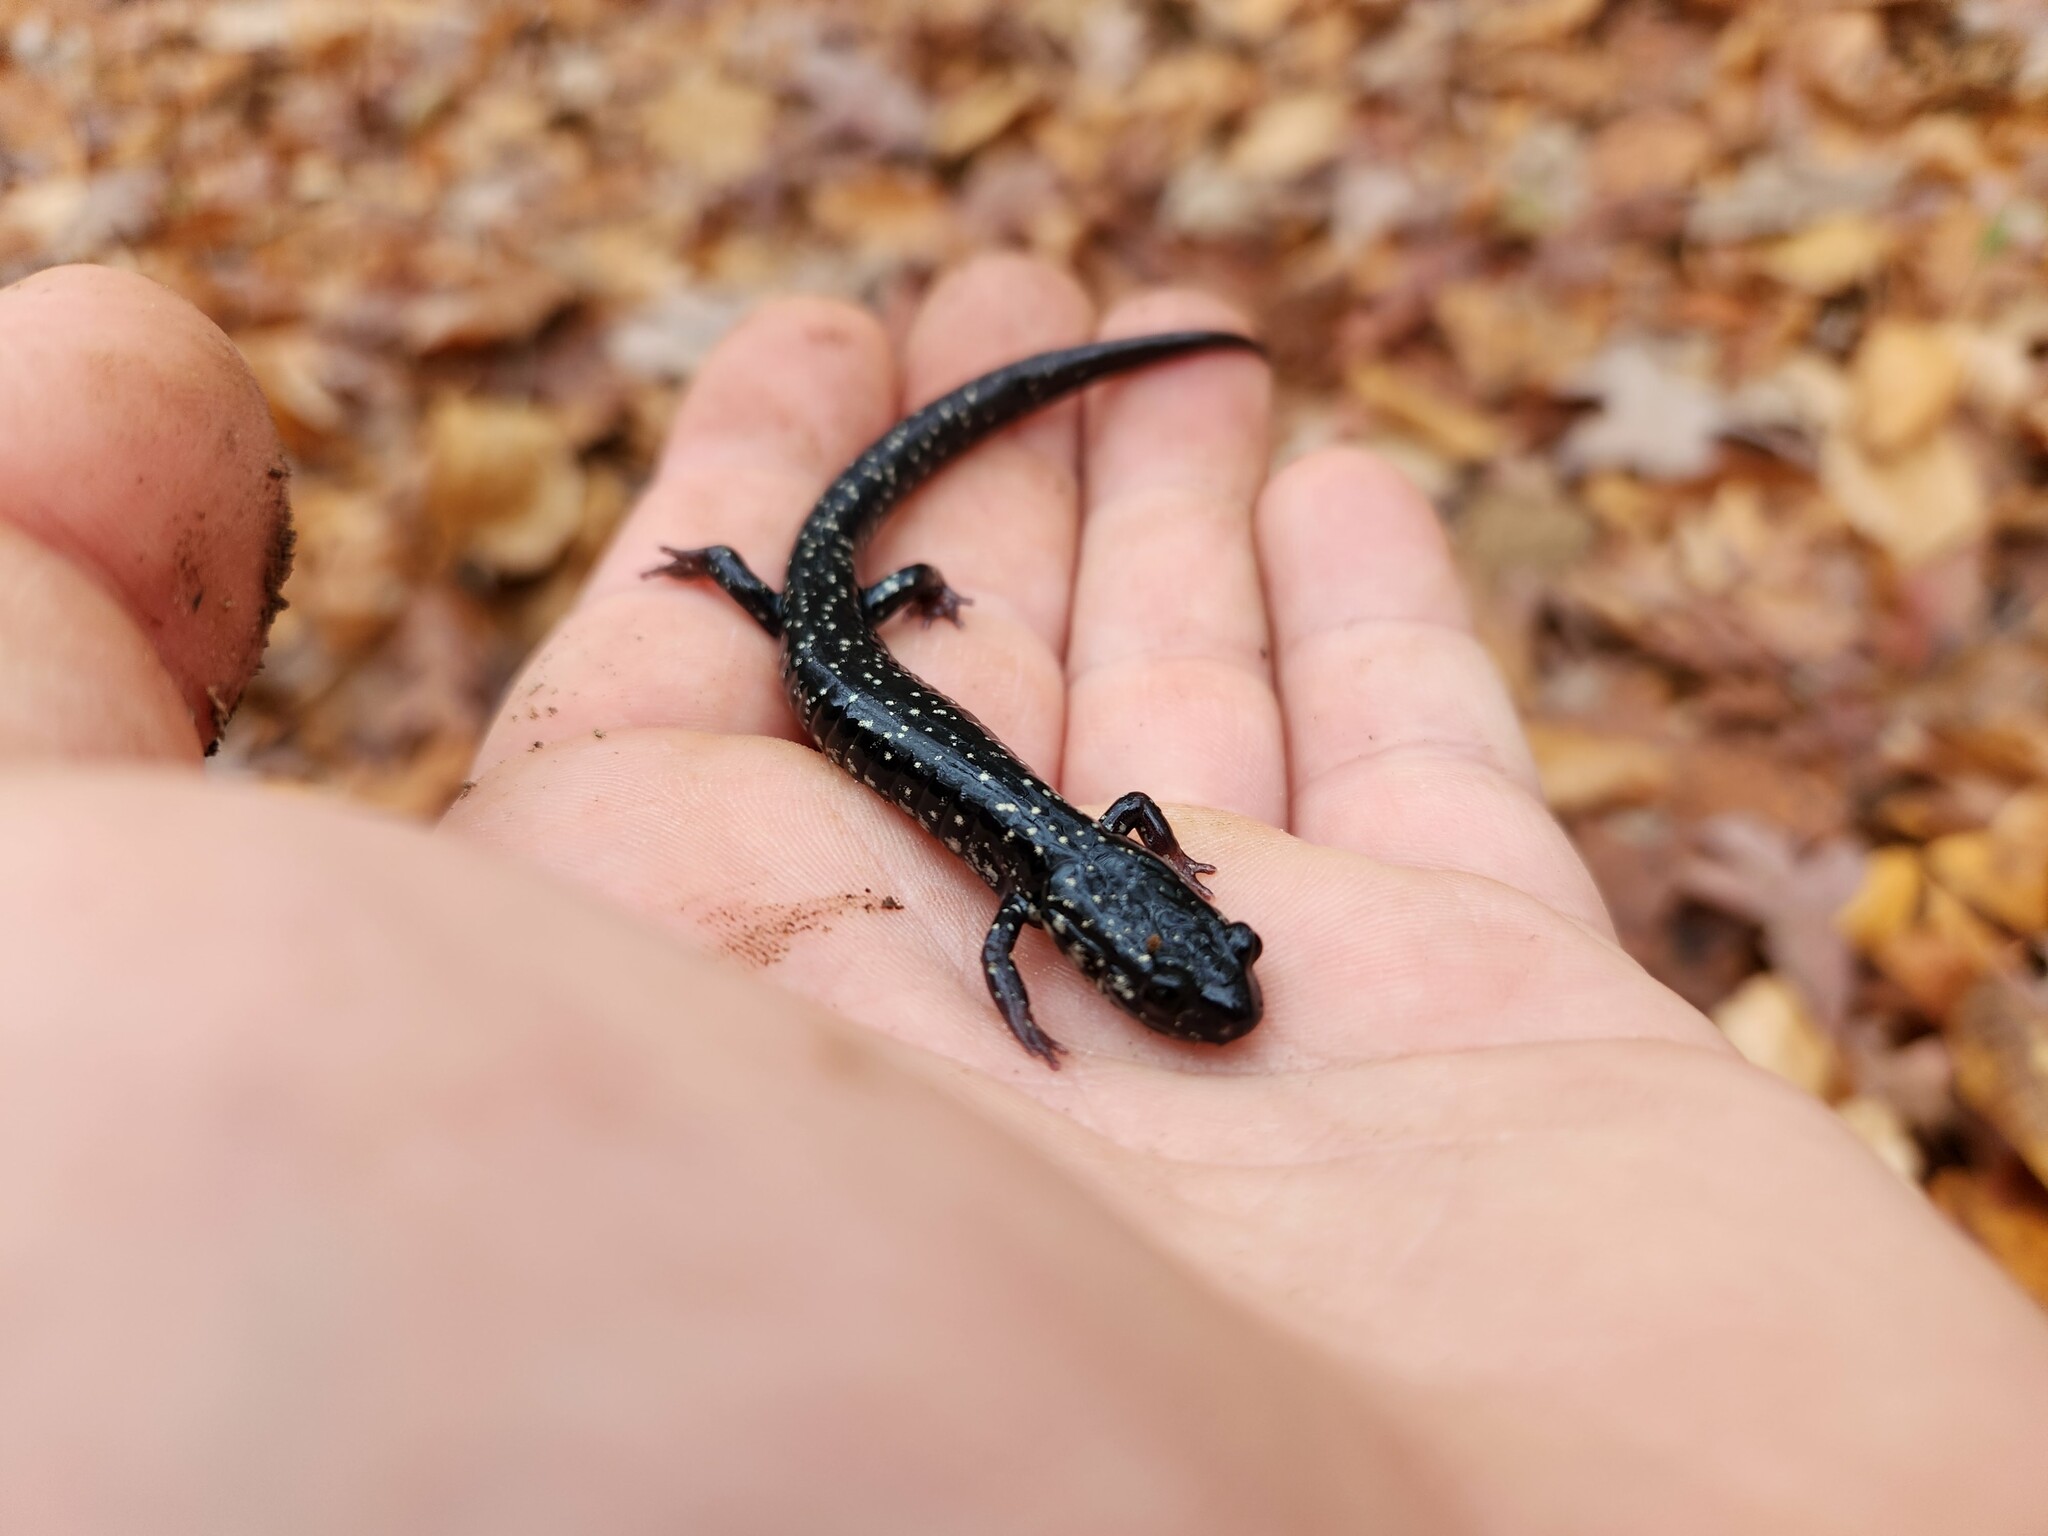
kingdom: Animalia
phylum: Chordata
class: Amphibia
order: Caudata
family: Plethodontidae
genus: Plethodon
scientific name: Plethodon glutinosus
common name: Northern slimy salamander
